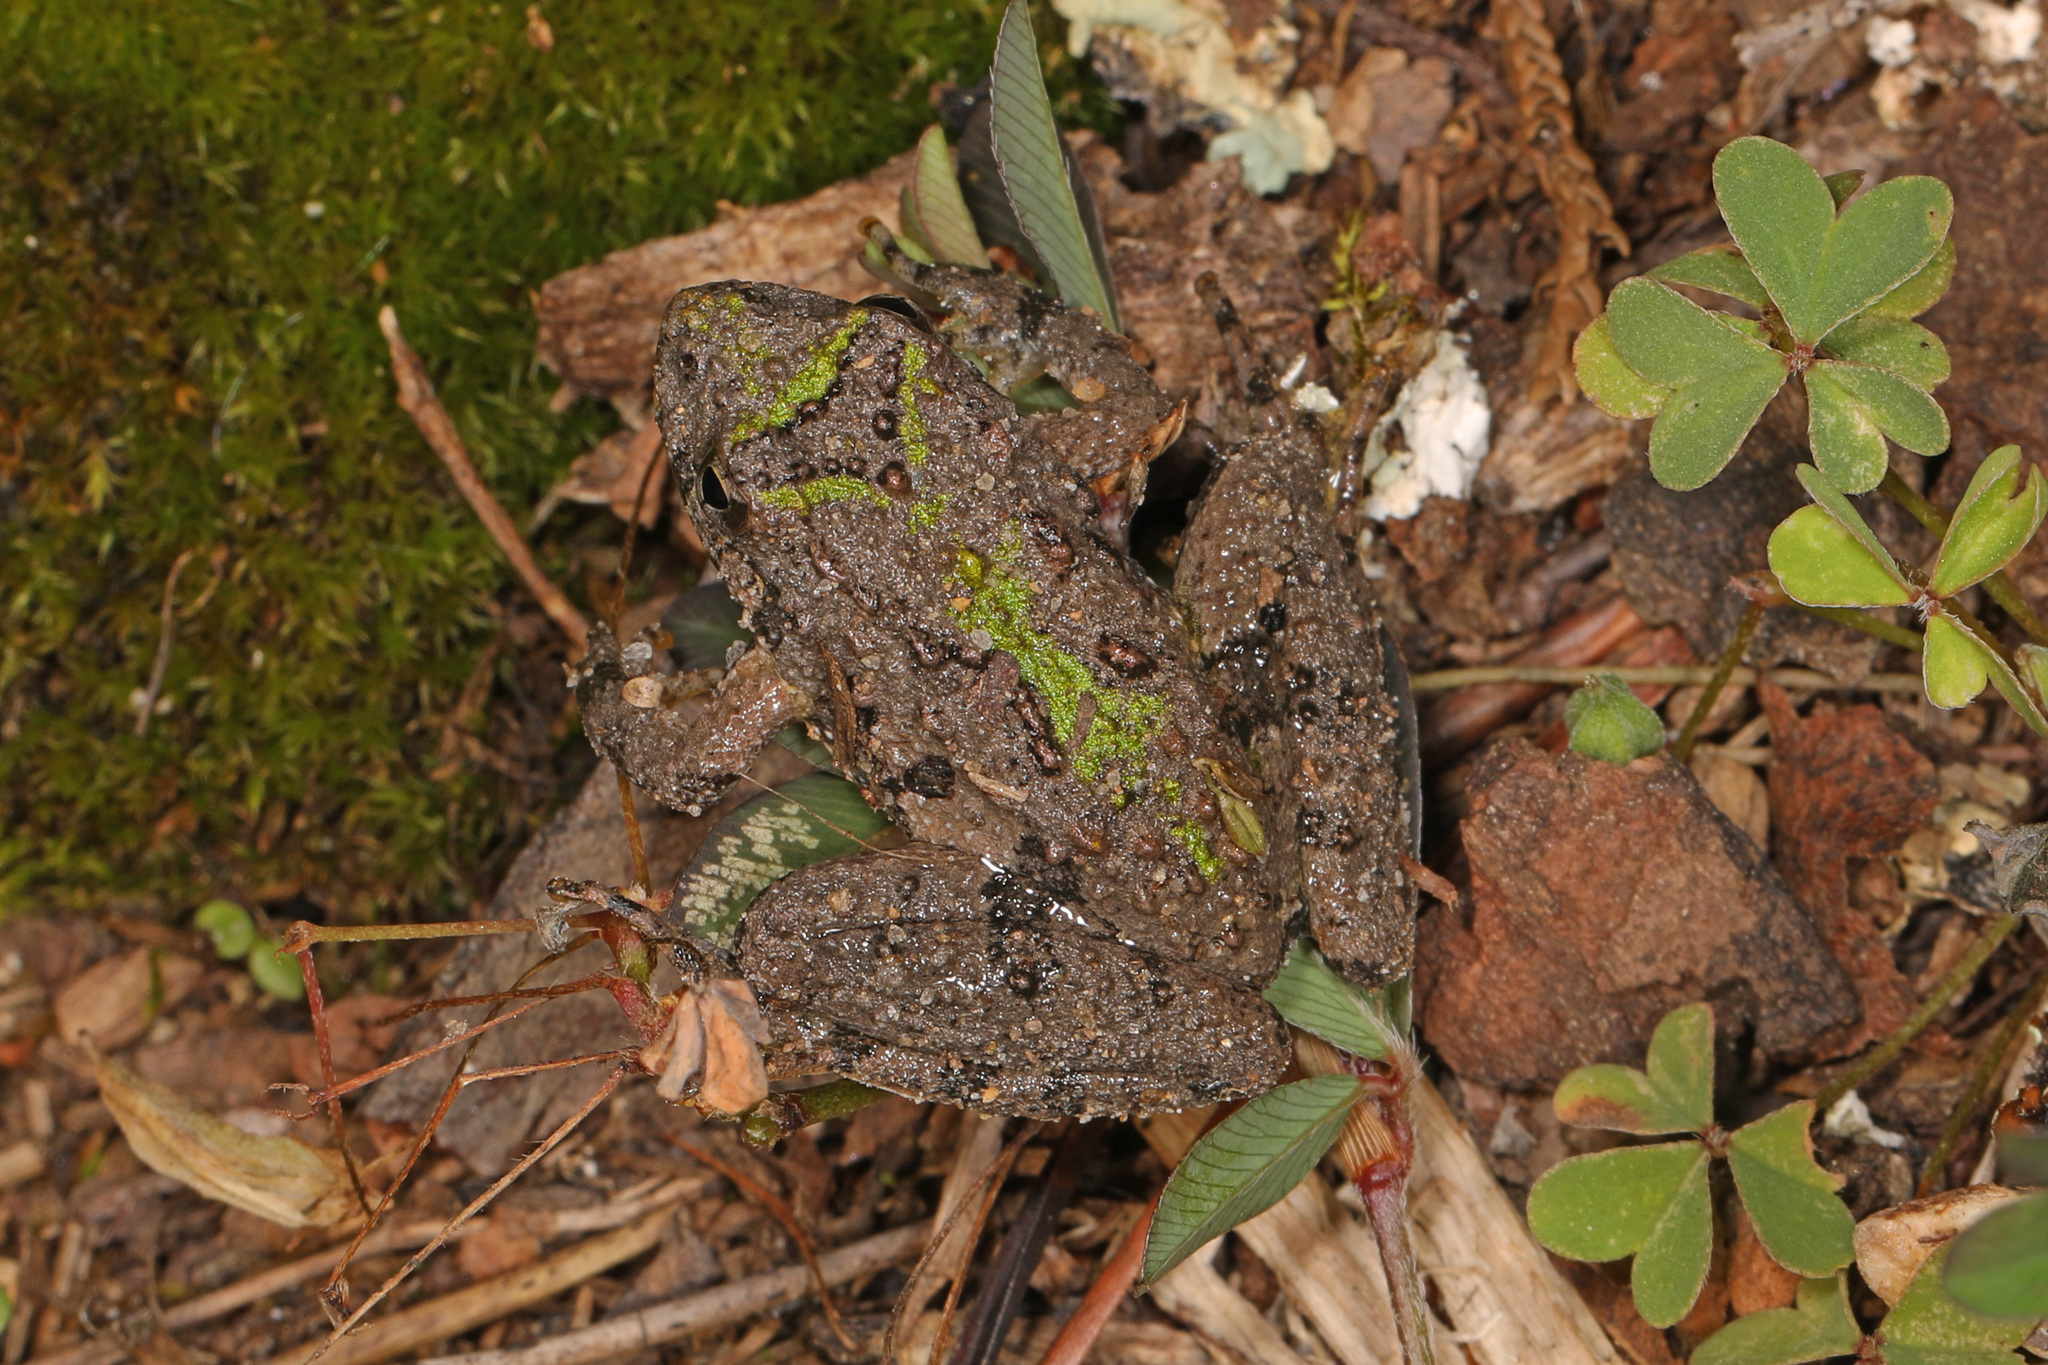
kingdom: Animalia
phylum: Chordata
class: Amphibia
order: Anura
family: Hylidae
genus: Acris
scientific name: Acris crepitans
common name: Northern cricket frog
